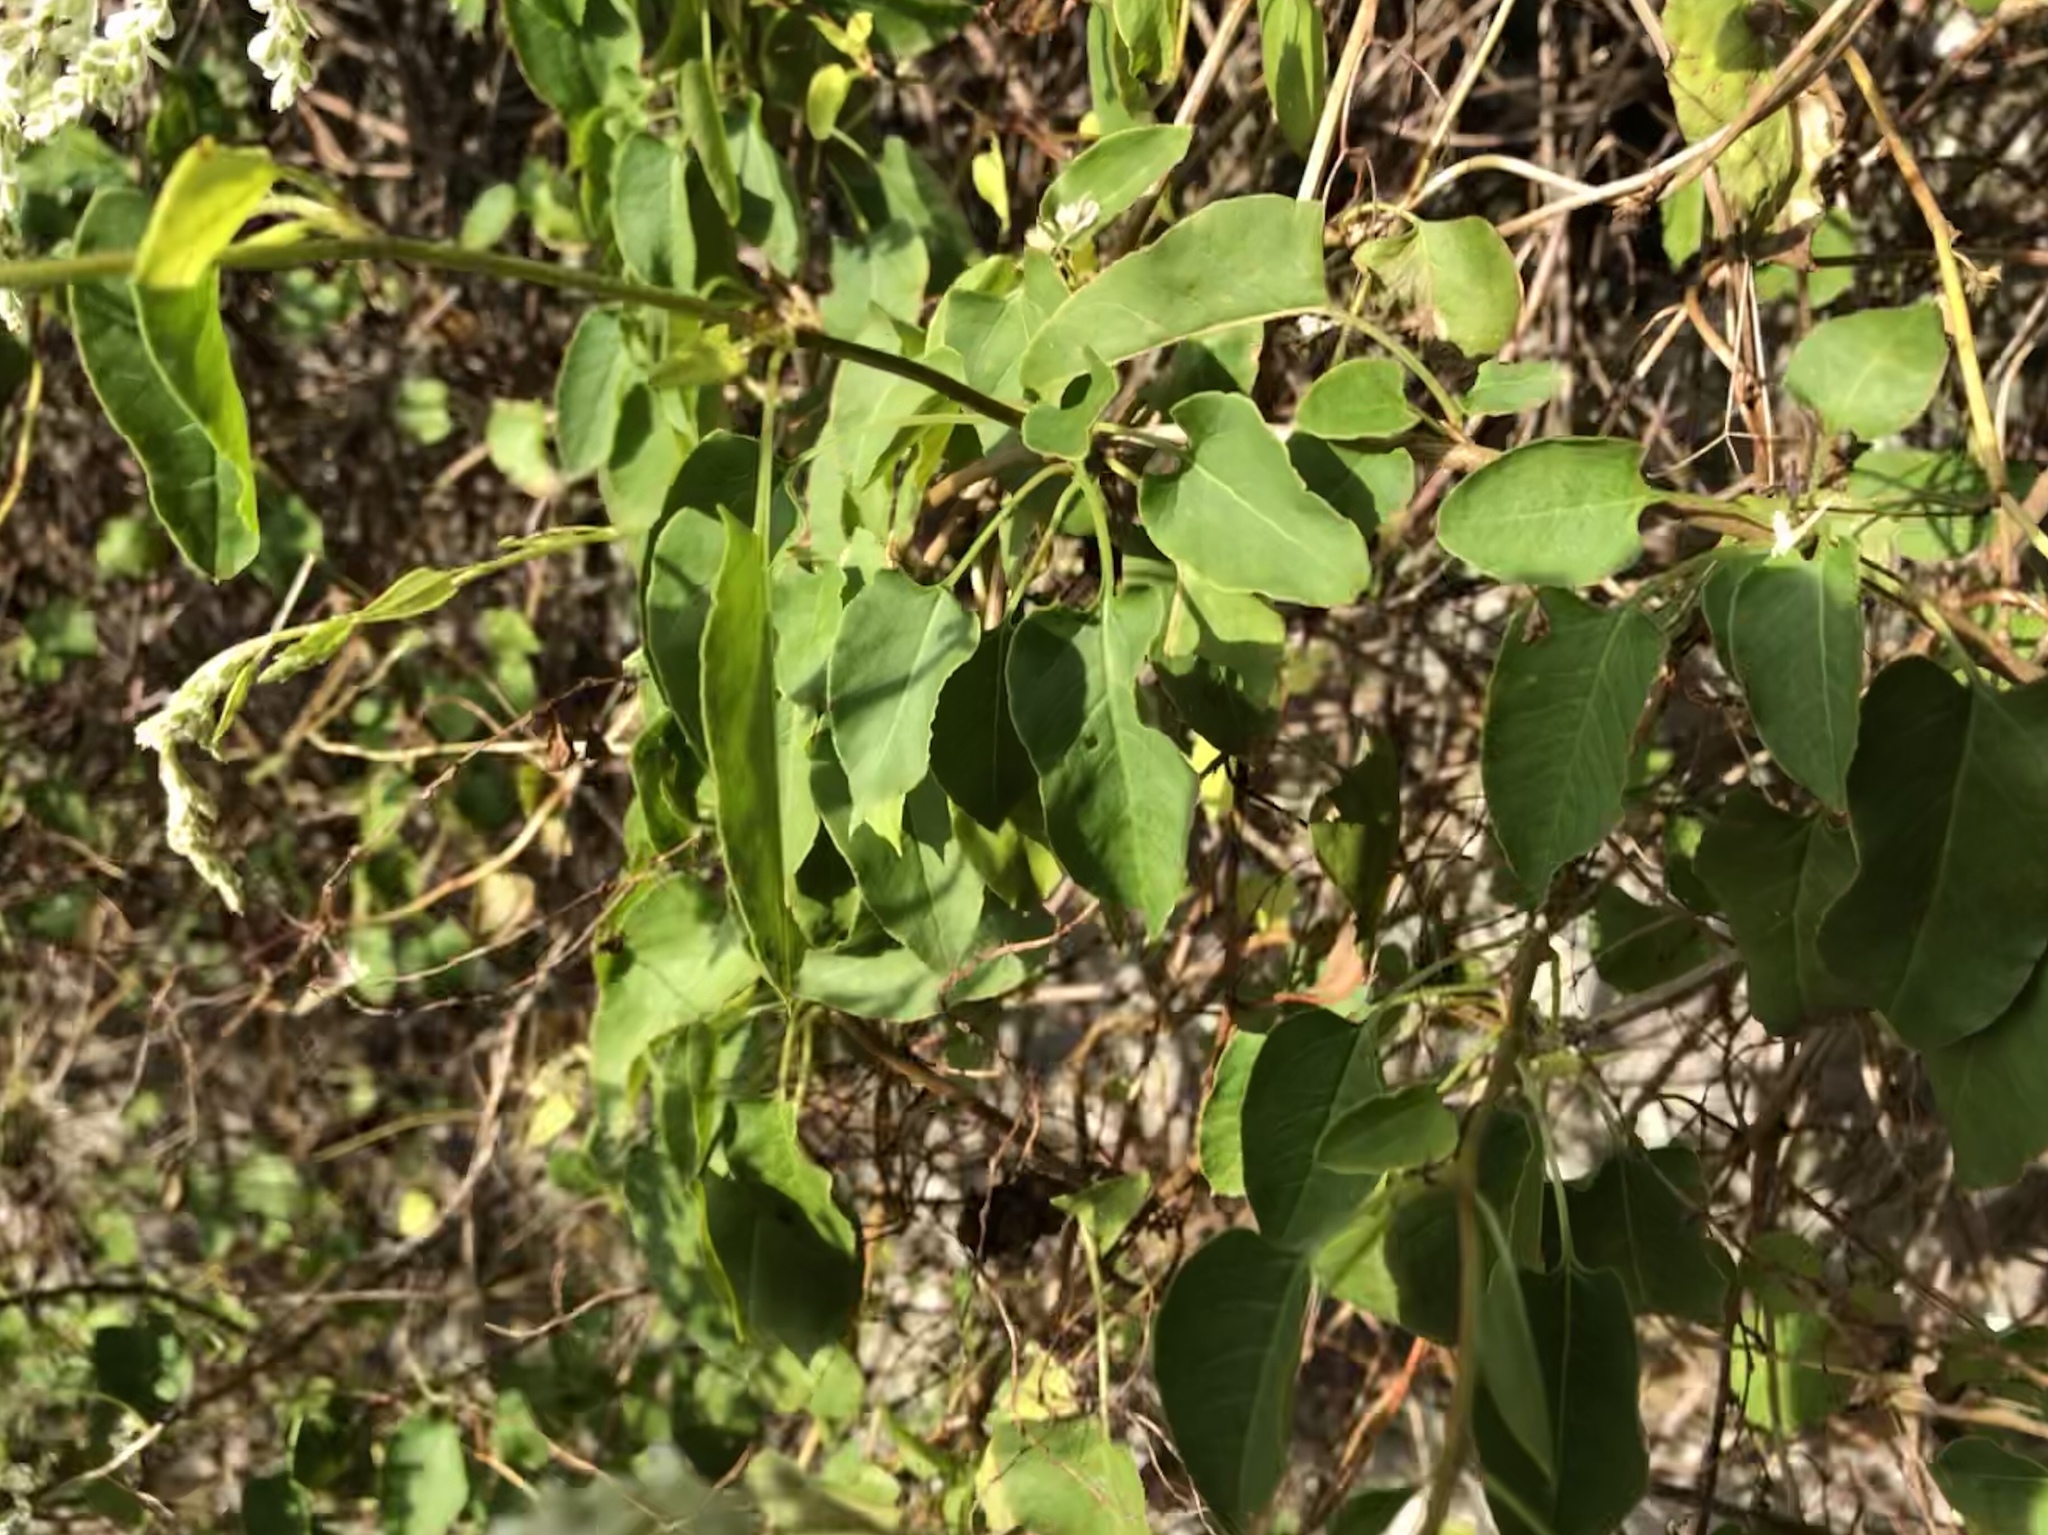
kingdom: Plantae
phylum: Tracheophyta
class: Magnoliopsida
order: Caryophyllales
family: Polygonaceae
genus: Fallopia
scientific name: Fallopia baldschuanica
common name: Russian-vine
